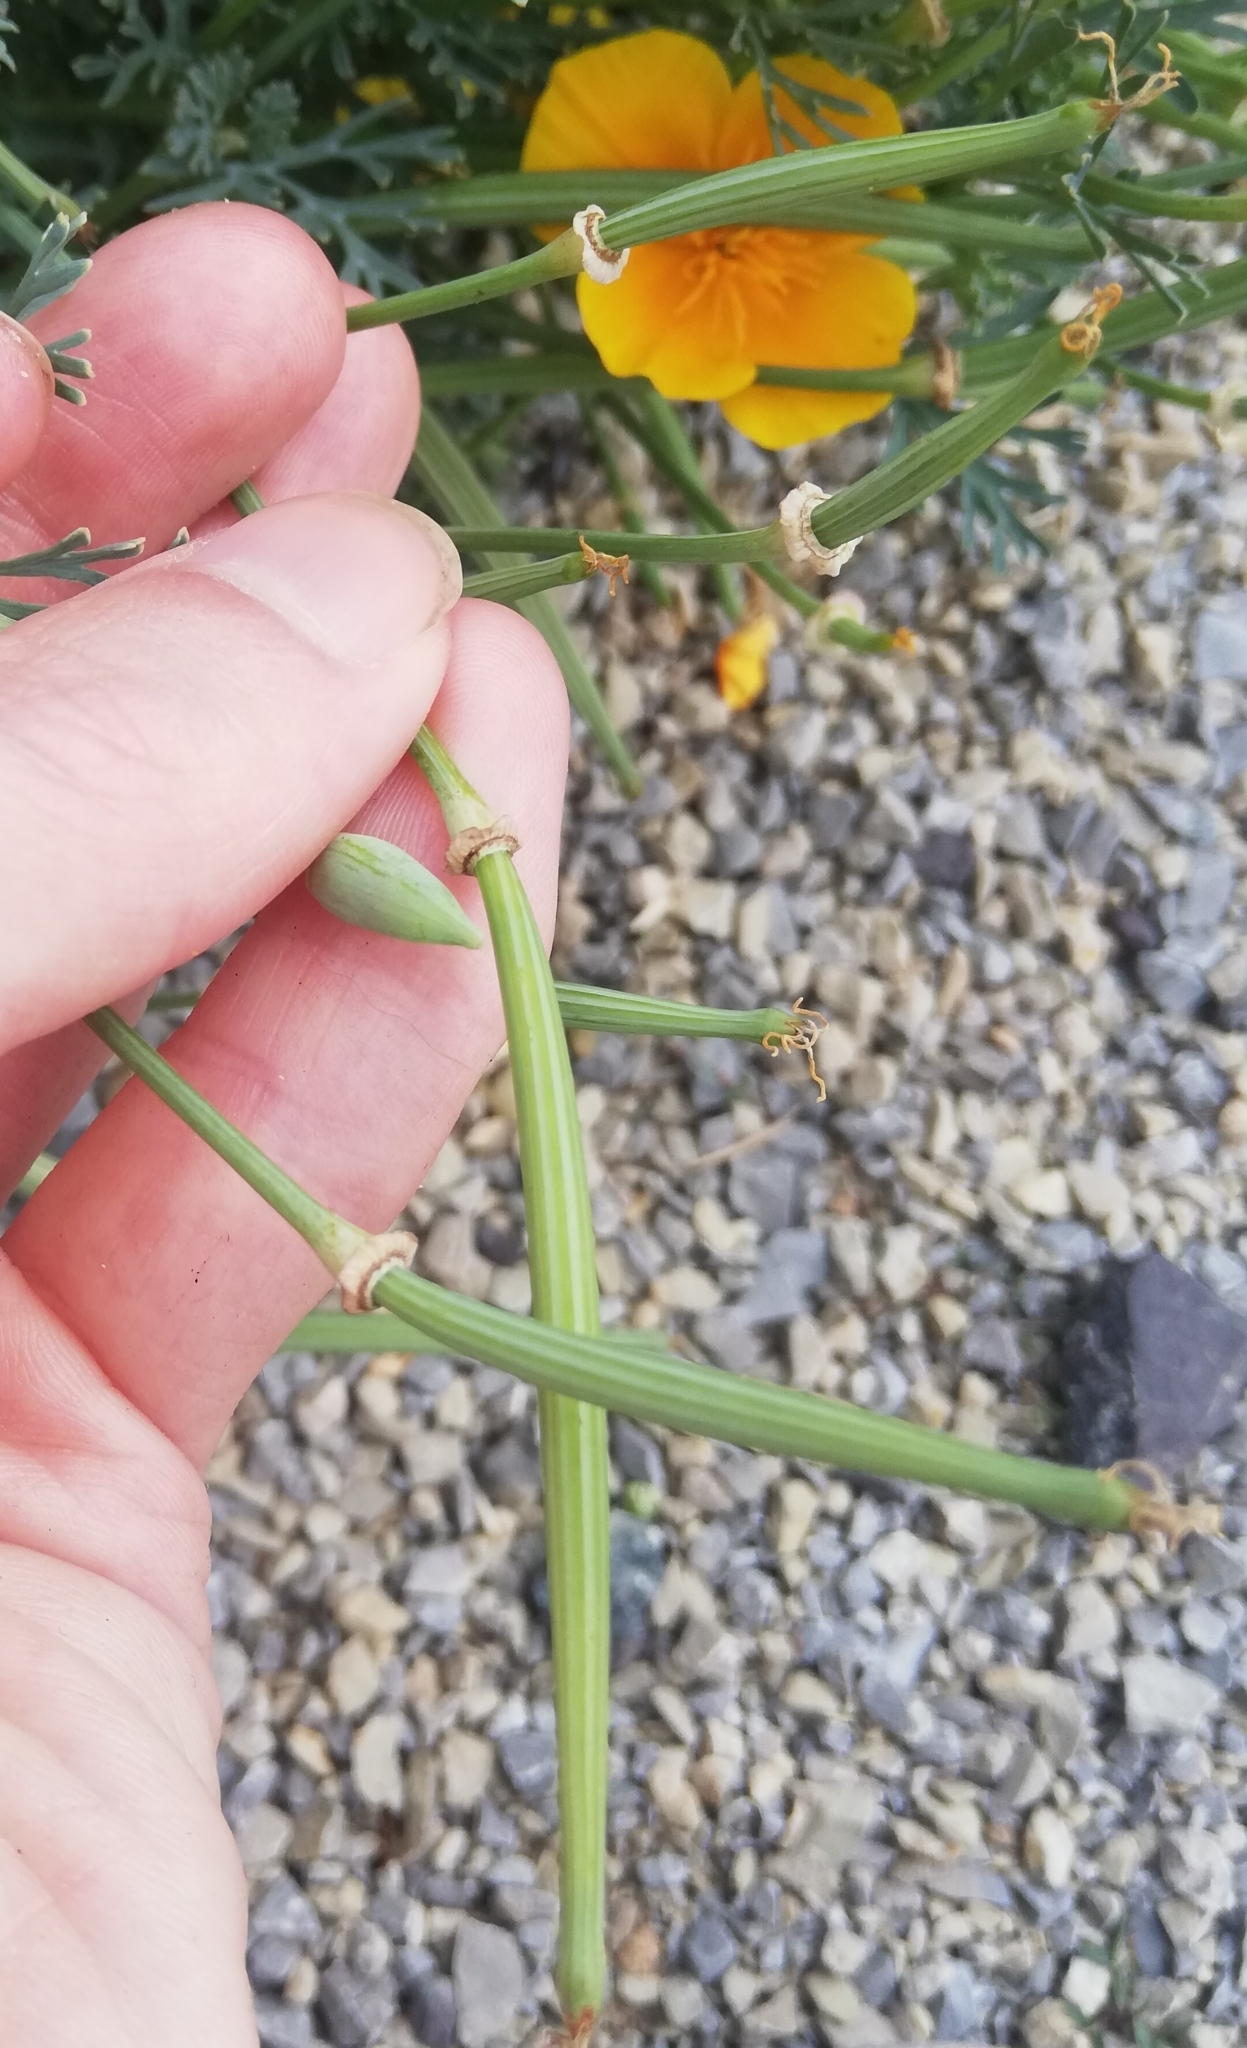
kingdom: Plantae
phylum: Tracheophyta
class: Magnoliopsida
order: Ranunculales
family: Papaveraceae
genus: Eschscholzia
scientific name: Eschscholzia californica
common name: California poppy
